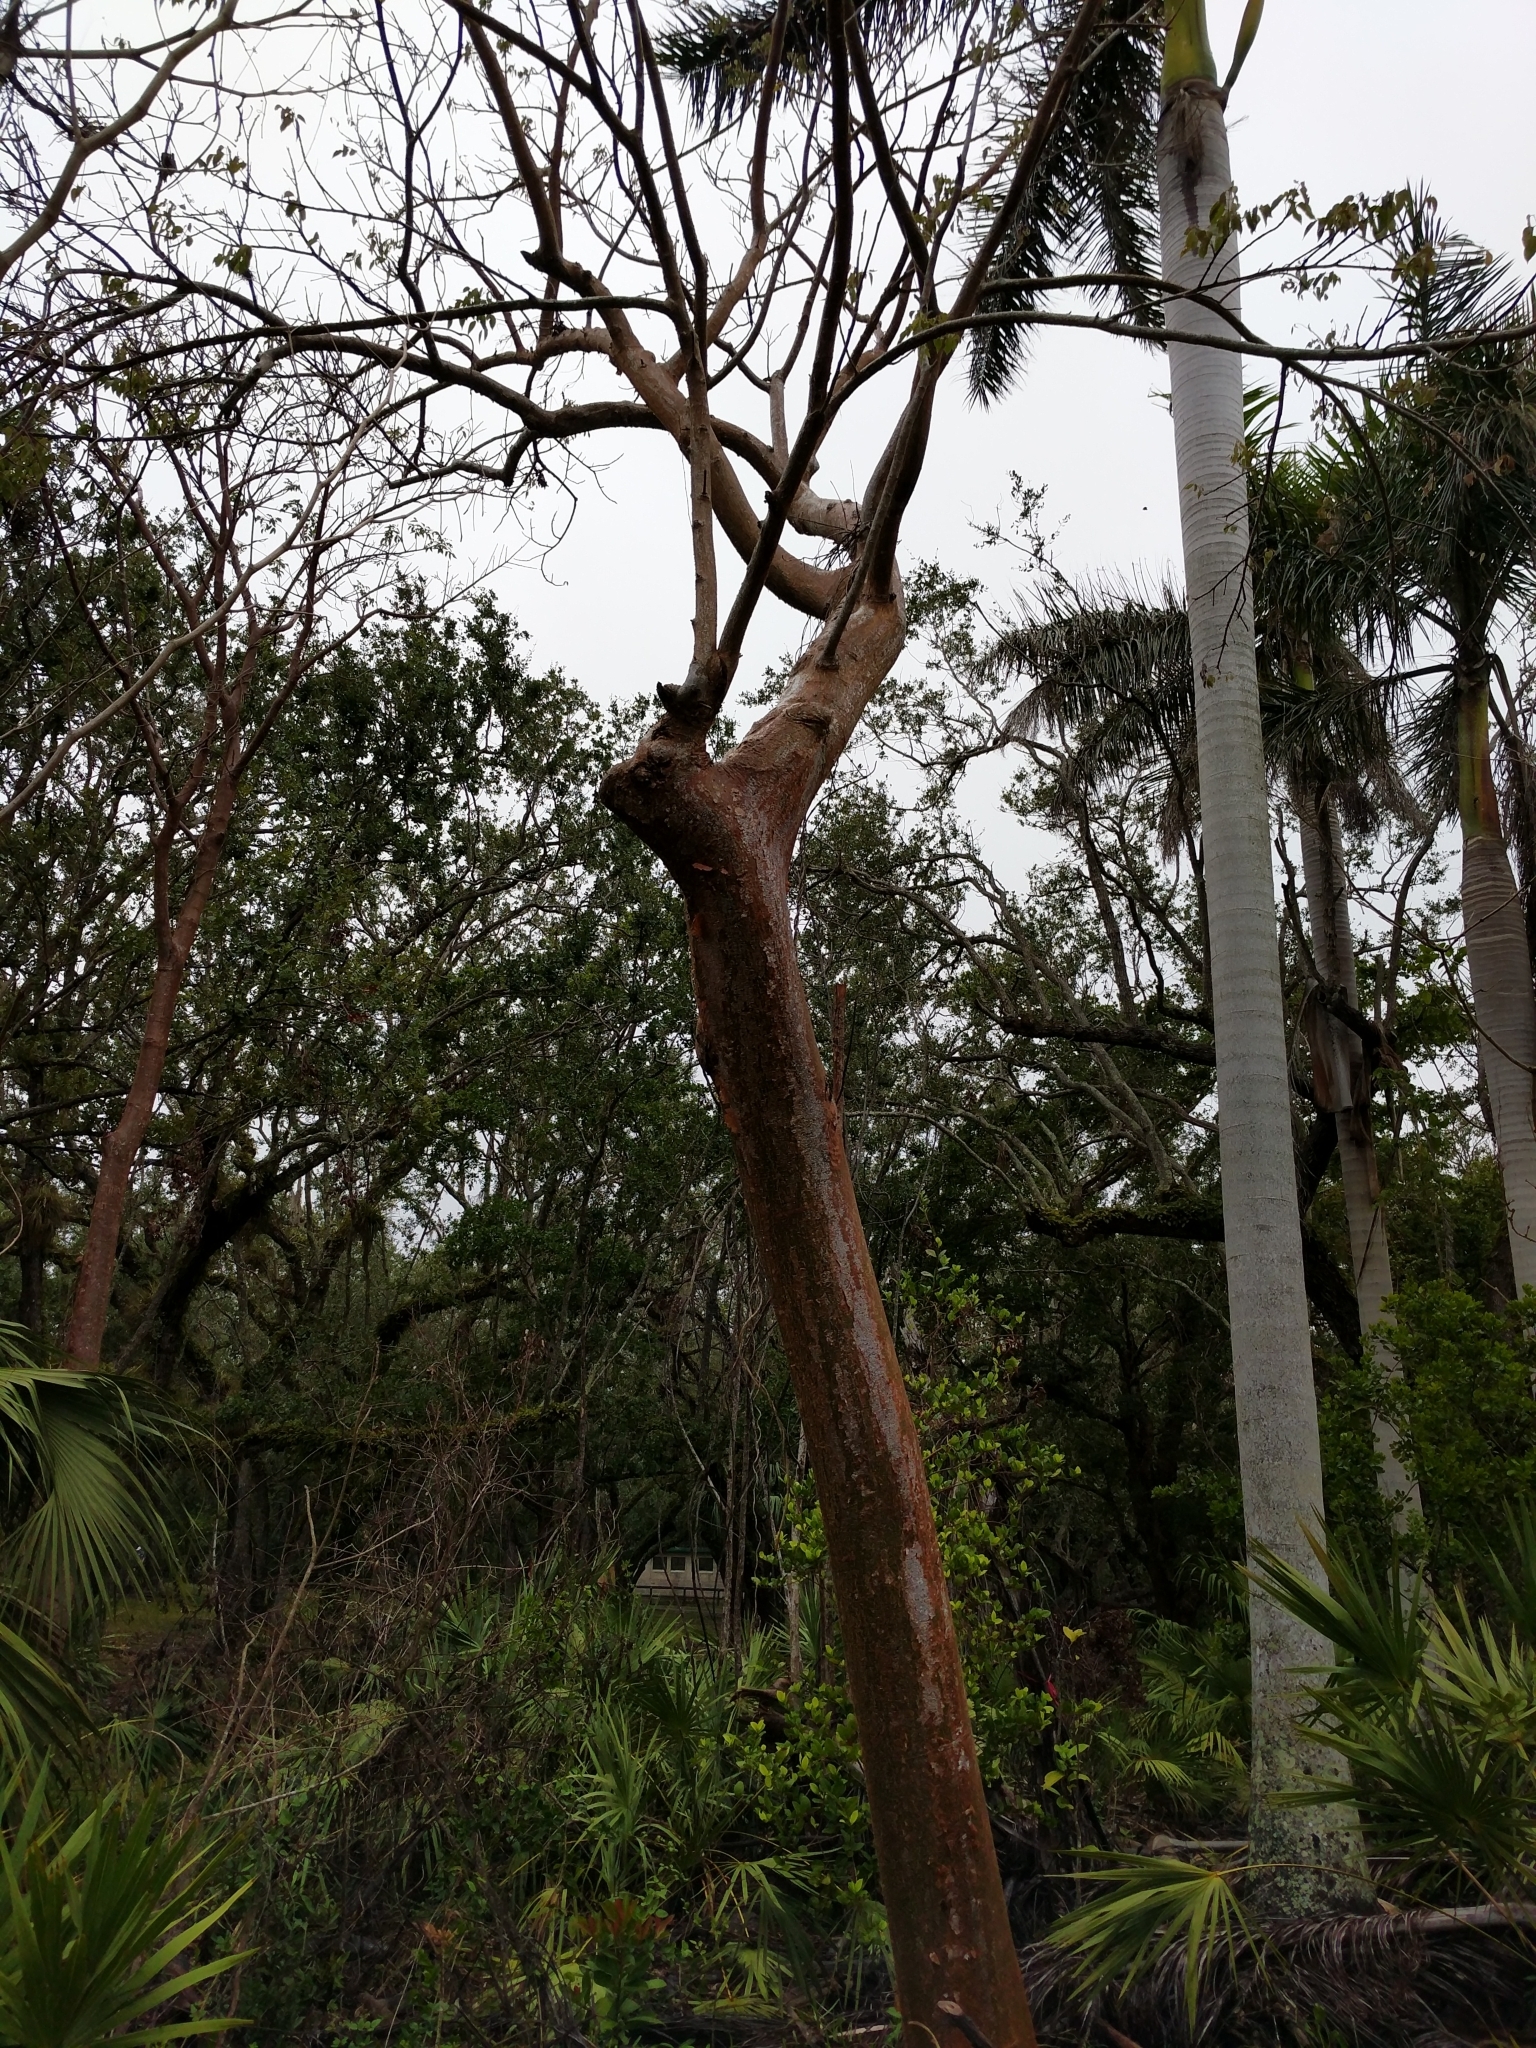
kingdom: Plantae
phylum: Tracheophyta
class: Magnoliopsida
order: Sapindales
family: Burseraceae
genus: Bursera
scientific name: Bursera simaruba
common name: Turpentine tree
